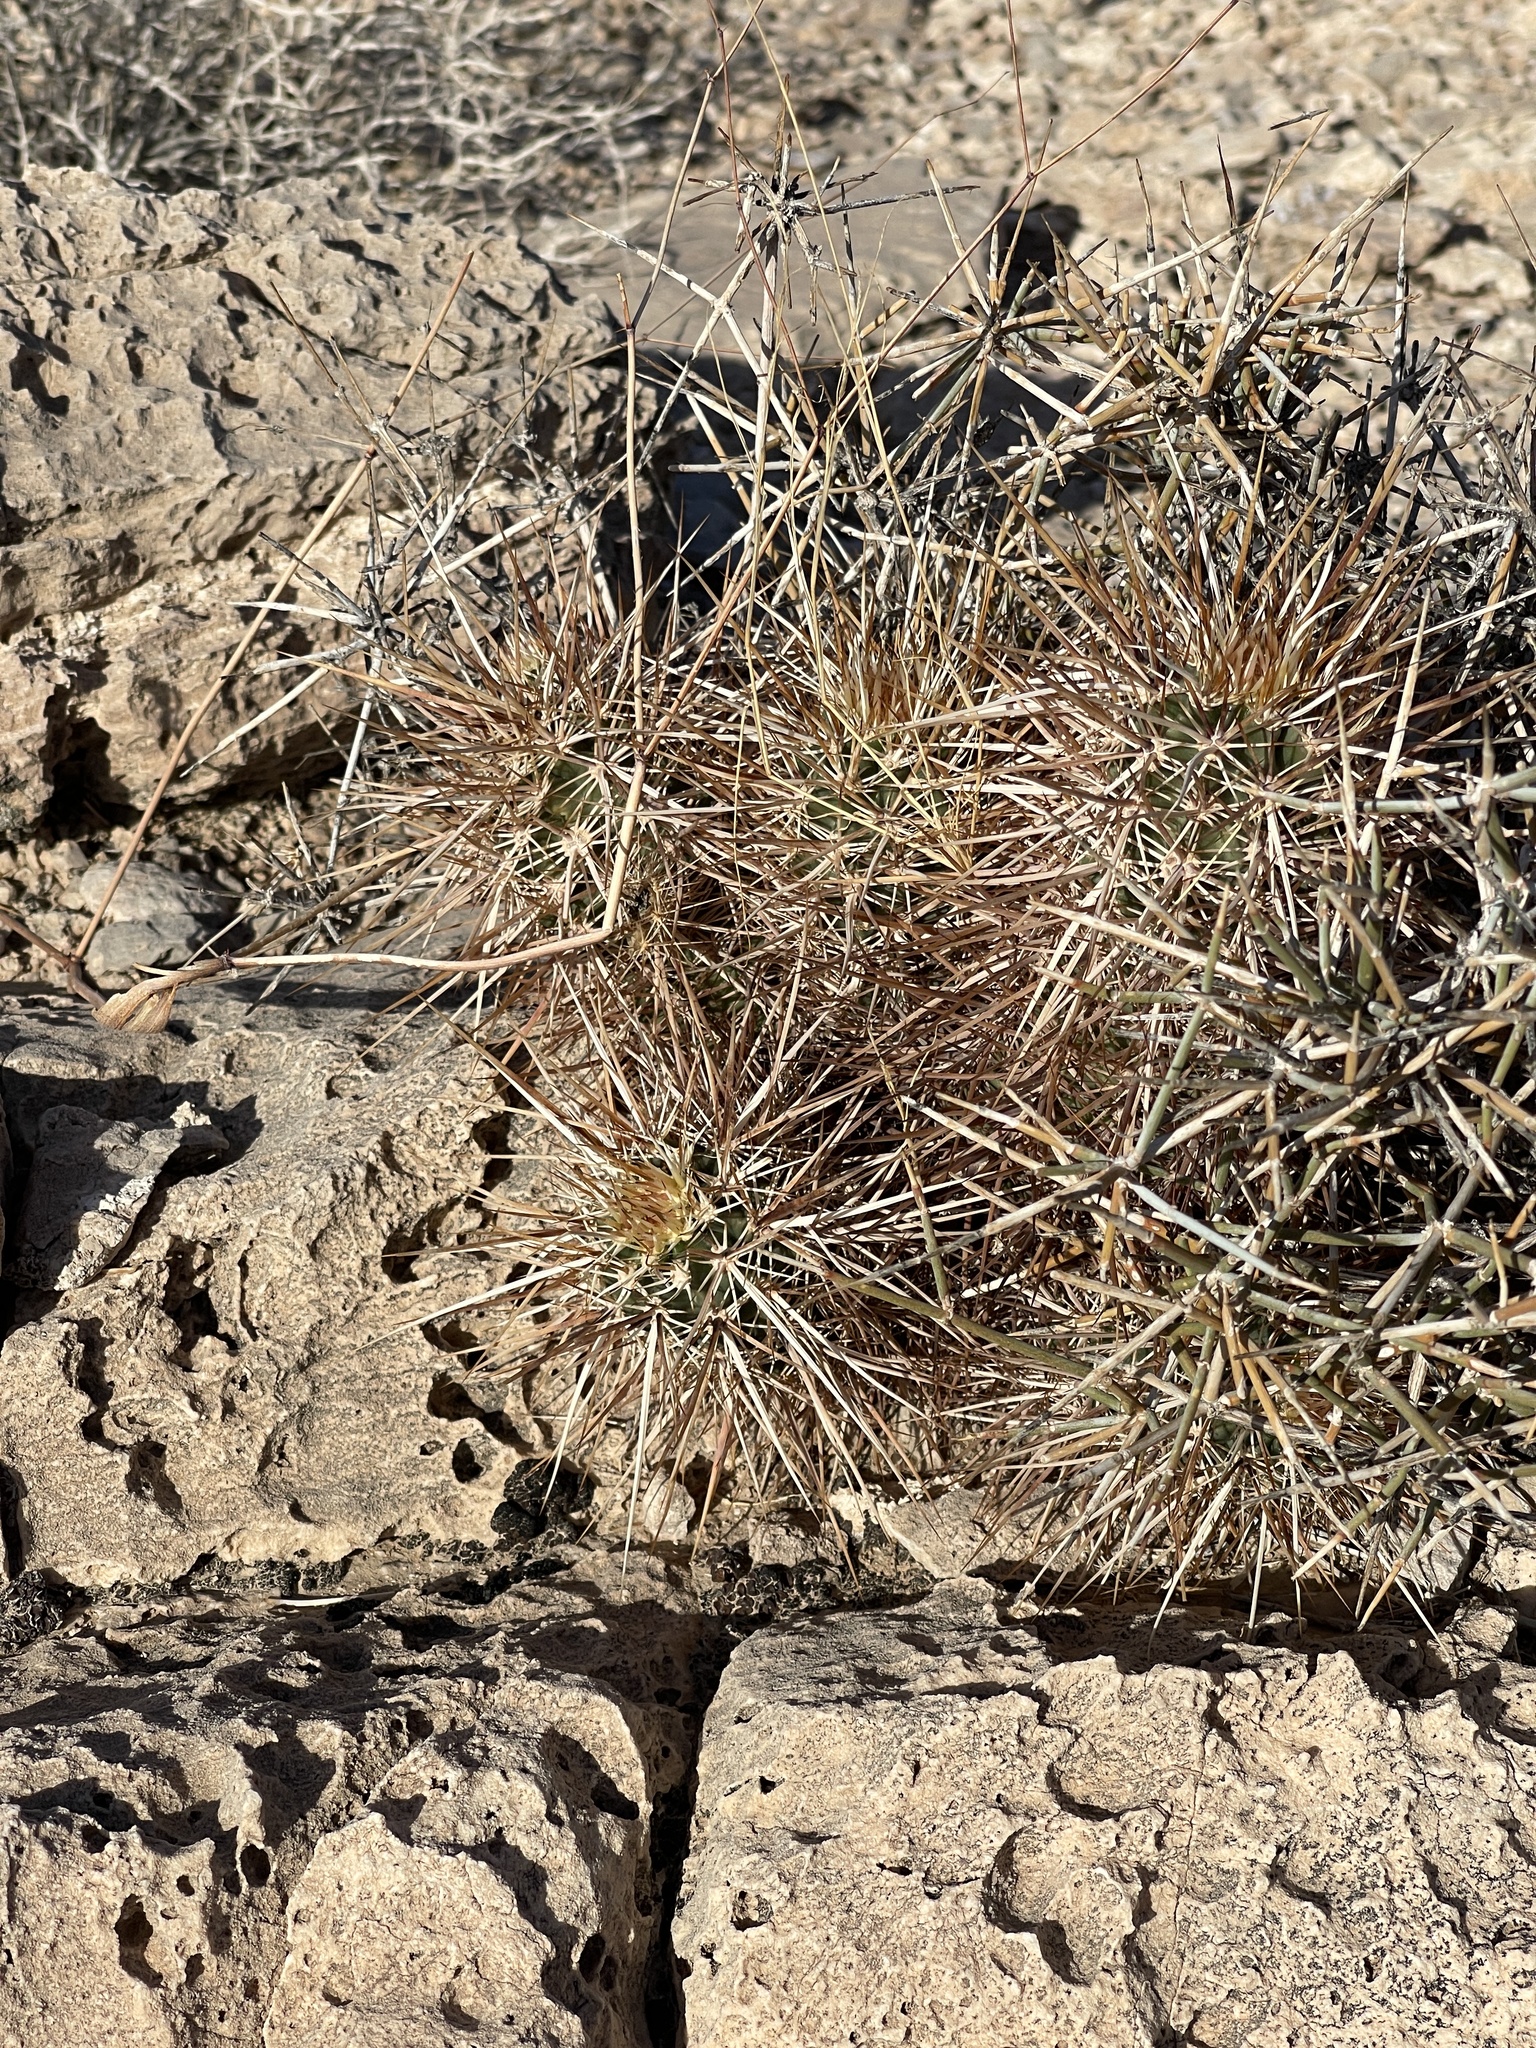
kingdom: Plantae
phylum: Tracheophyta
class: Magnoliopsida
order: Caryophyllales
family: Cactaceae
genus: Echinocereus
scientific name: Echinocereus engelmannii
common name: Engelmann's hedgehog cactus
